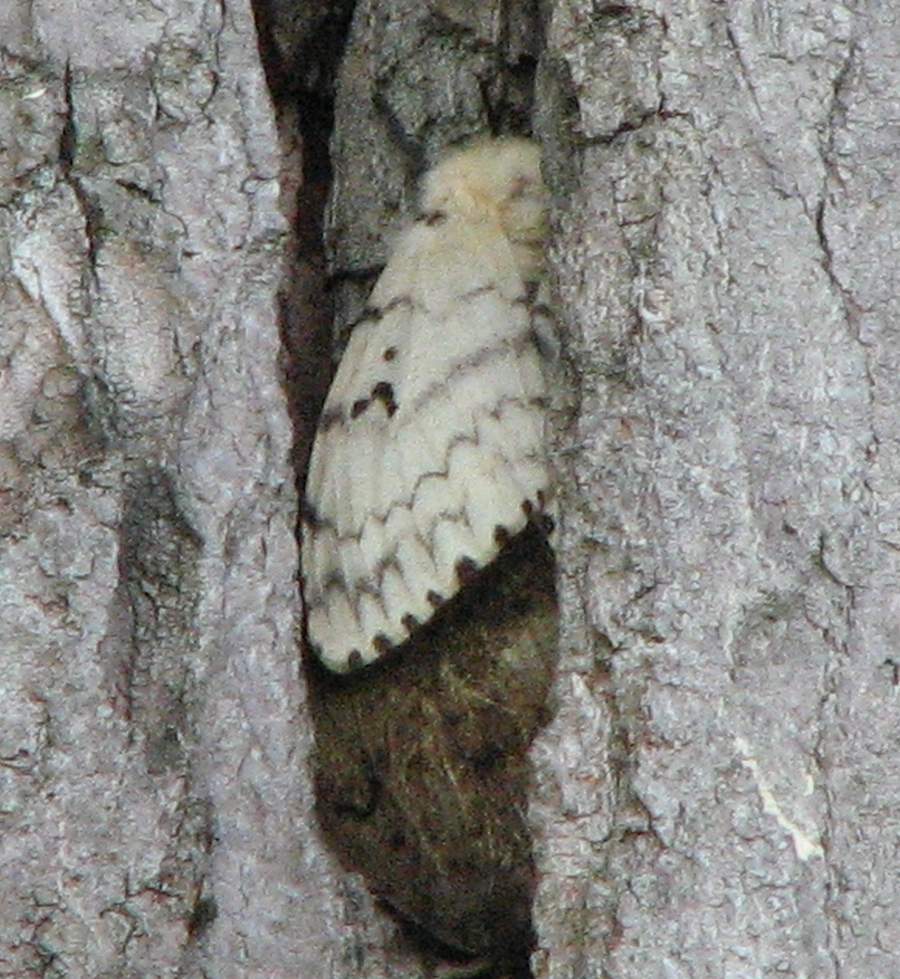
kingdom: Animalia
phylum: Arthropoda
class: Insecta
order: Lepidoptera
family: Erebidae
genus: Lymantria
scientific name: Lymantria dispar
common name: Gypsy moth
